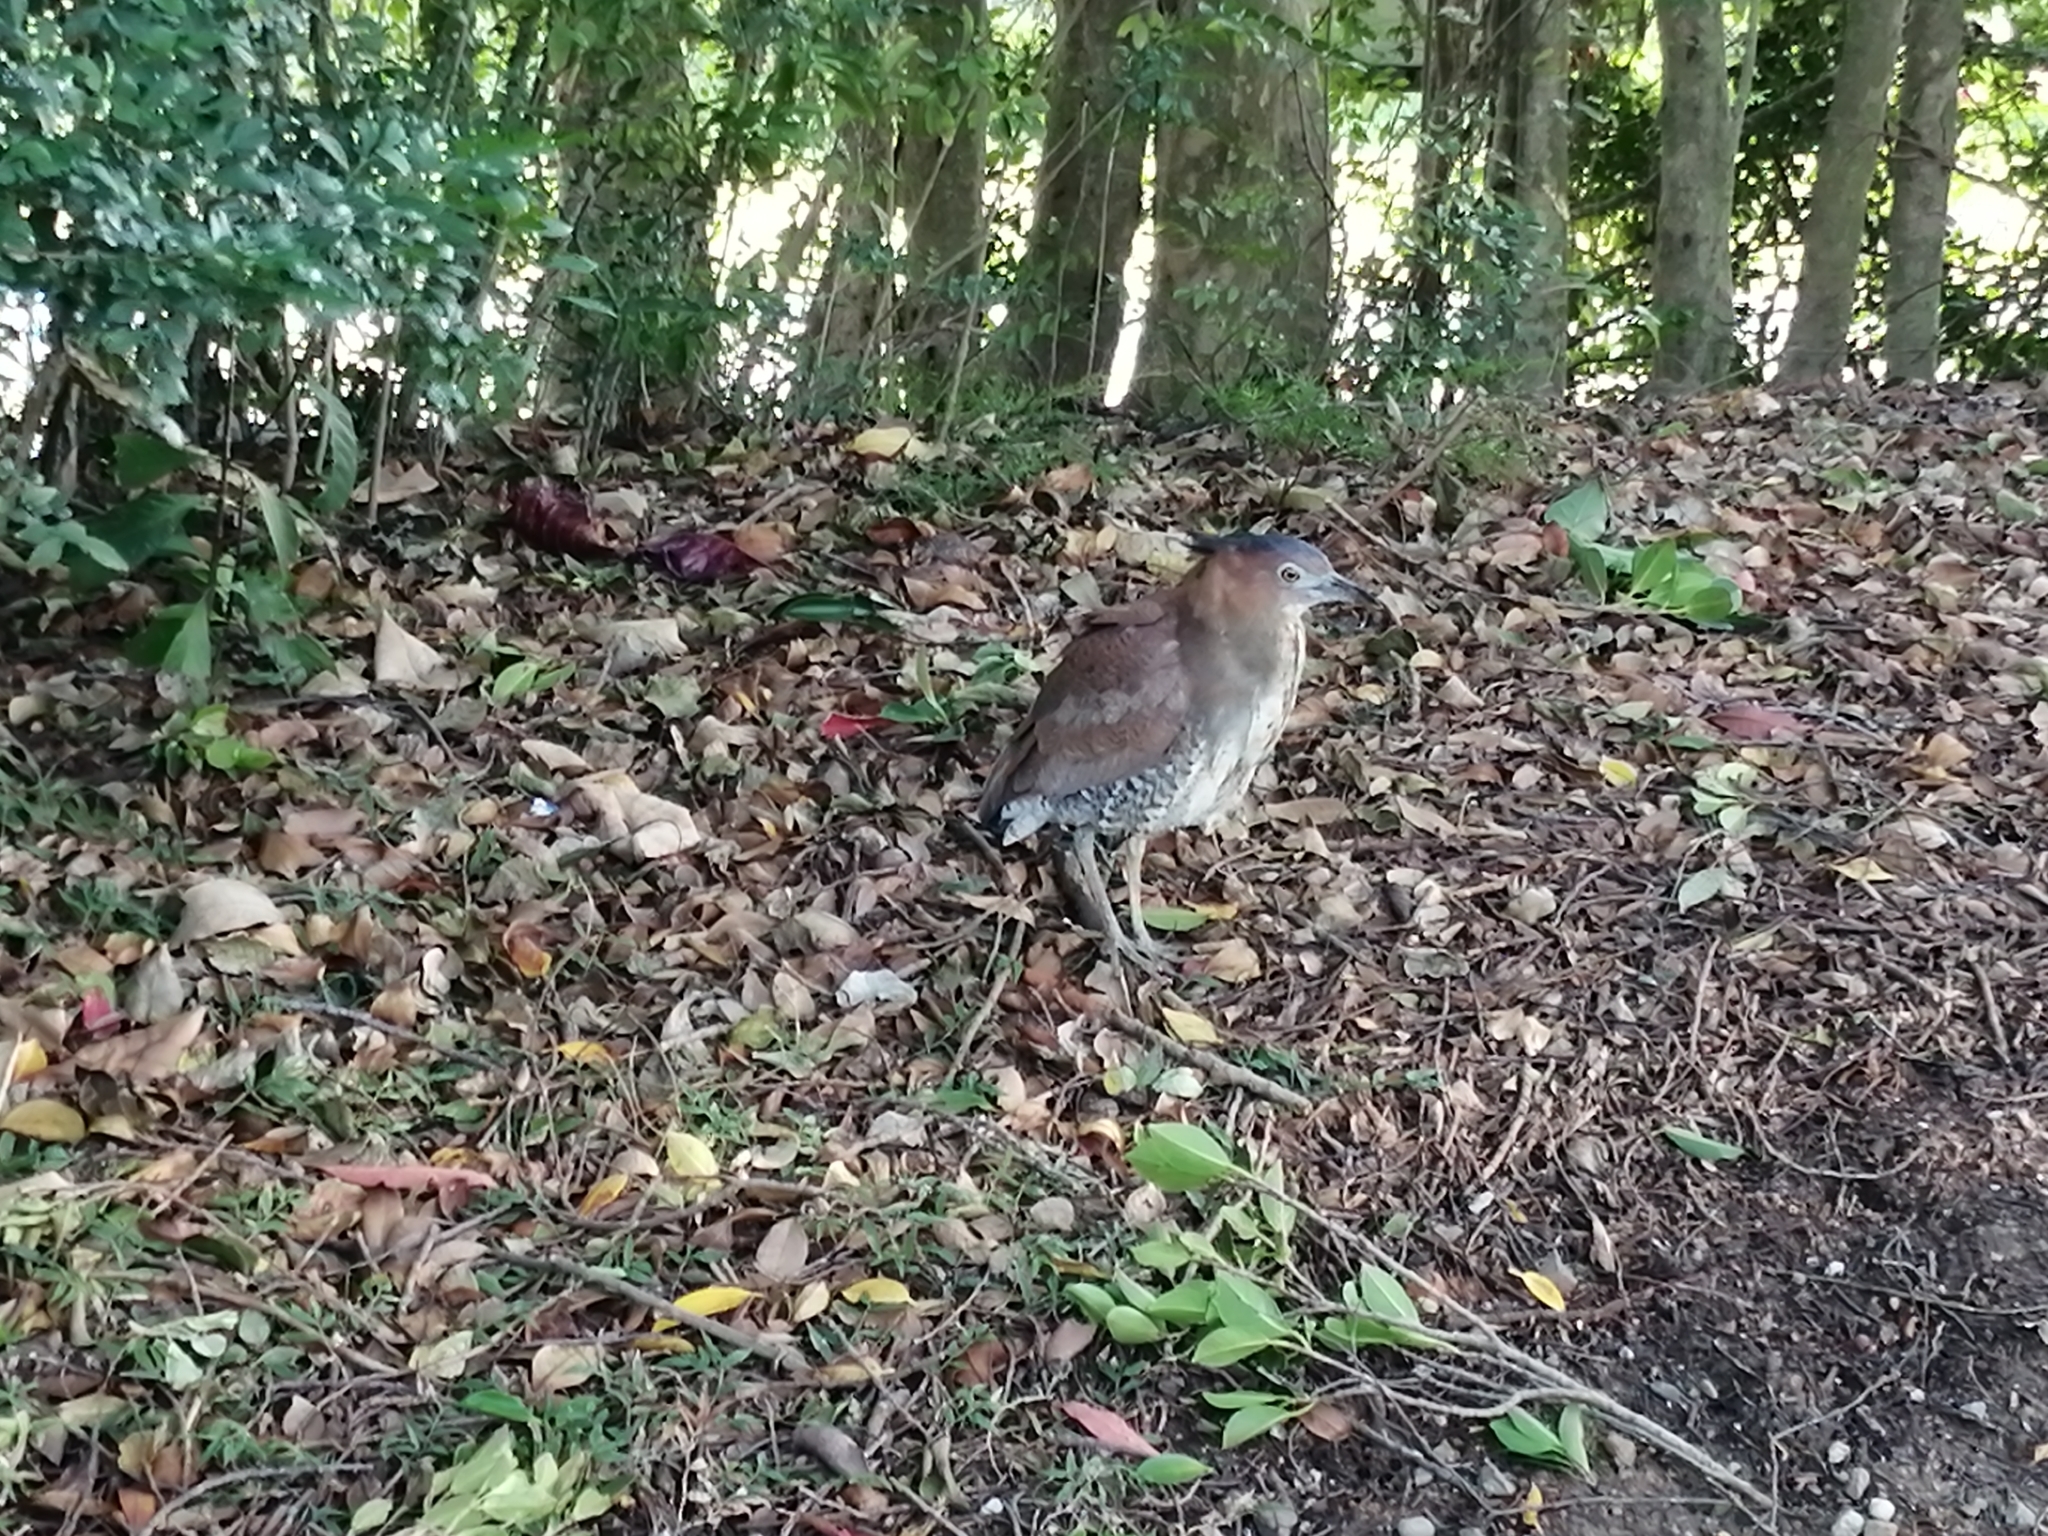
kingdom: Animalia
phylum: Chordata
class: Aves
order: Pelecaniformes
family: Ardeidae
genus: Gorsachius
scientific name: Gorsachius melanolophus
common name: Malayan night heron
